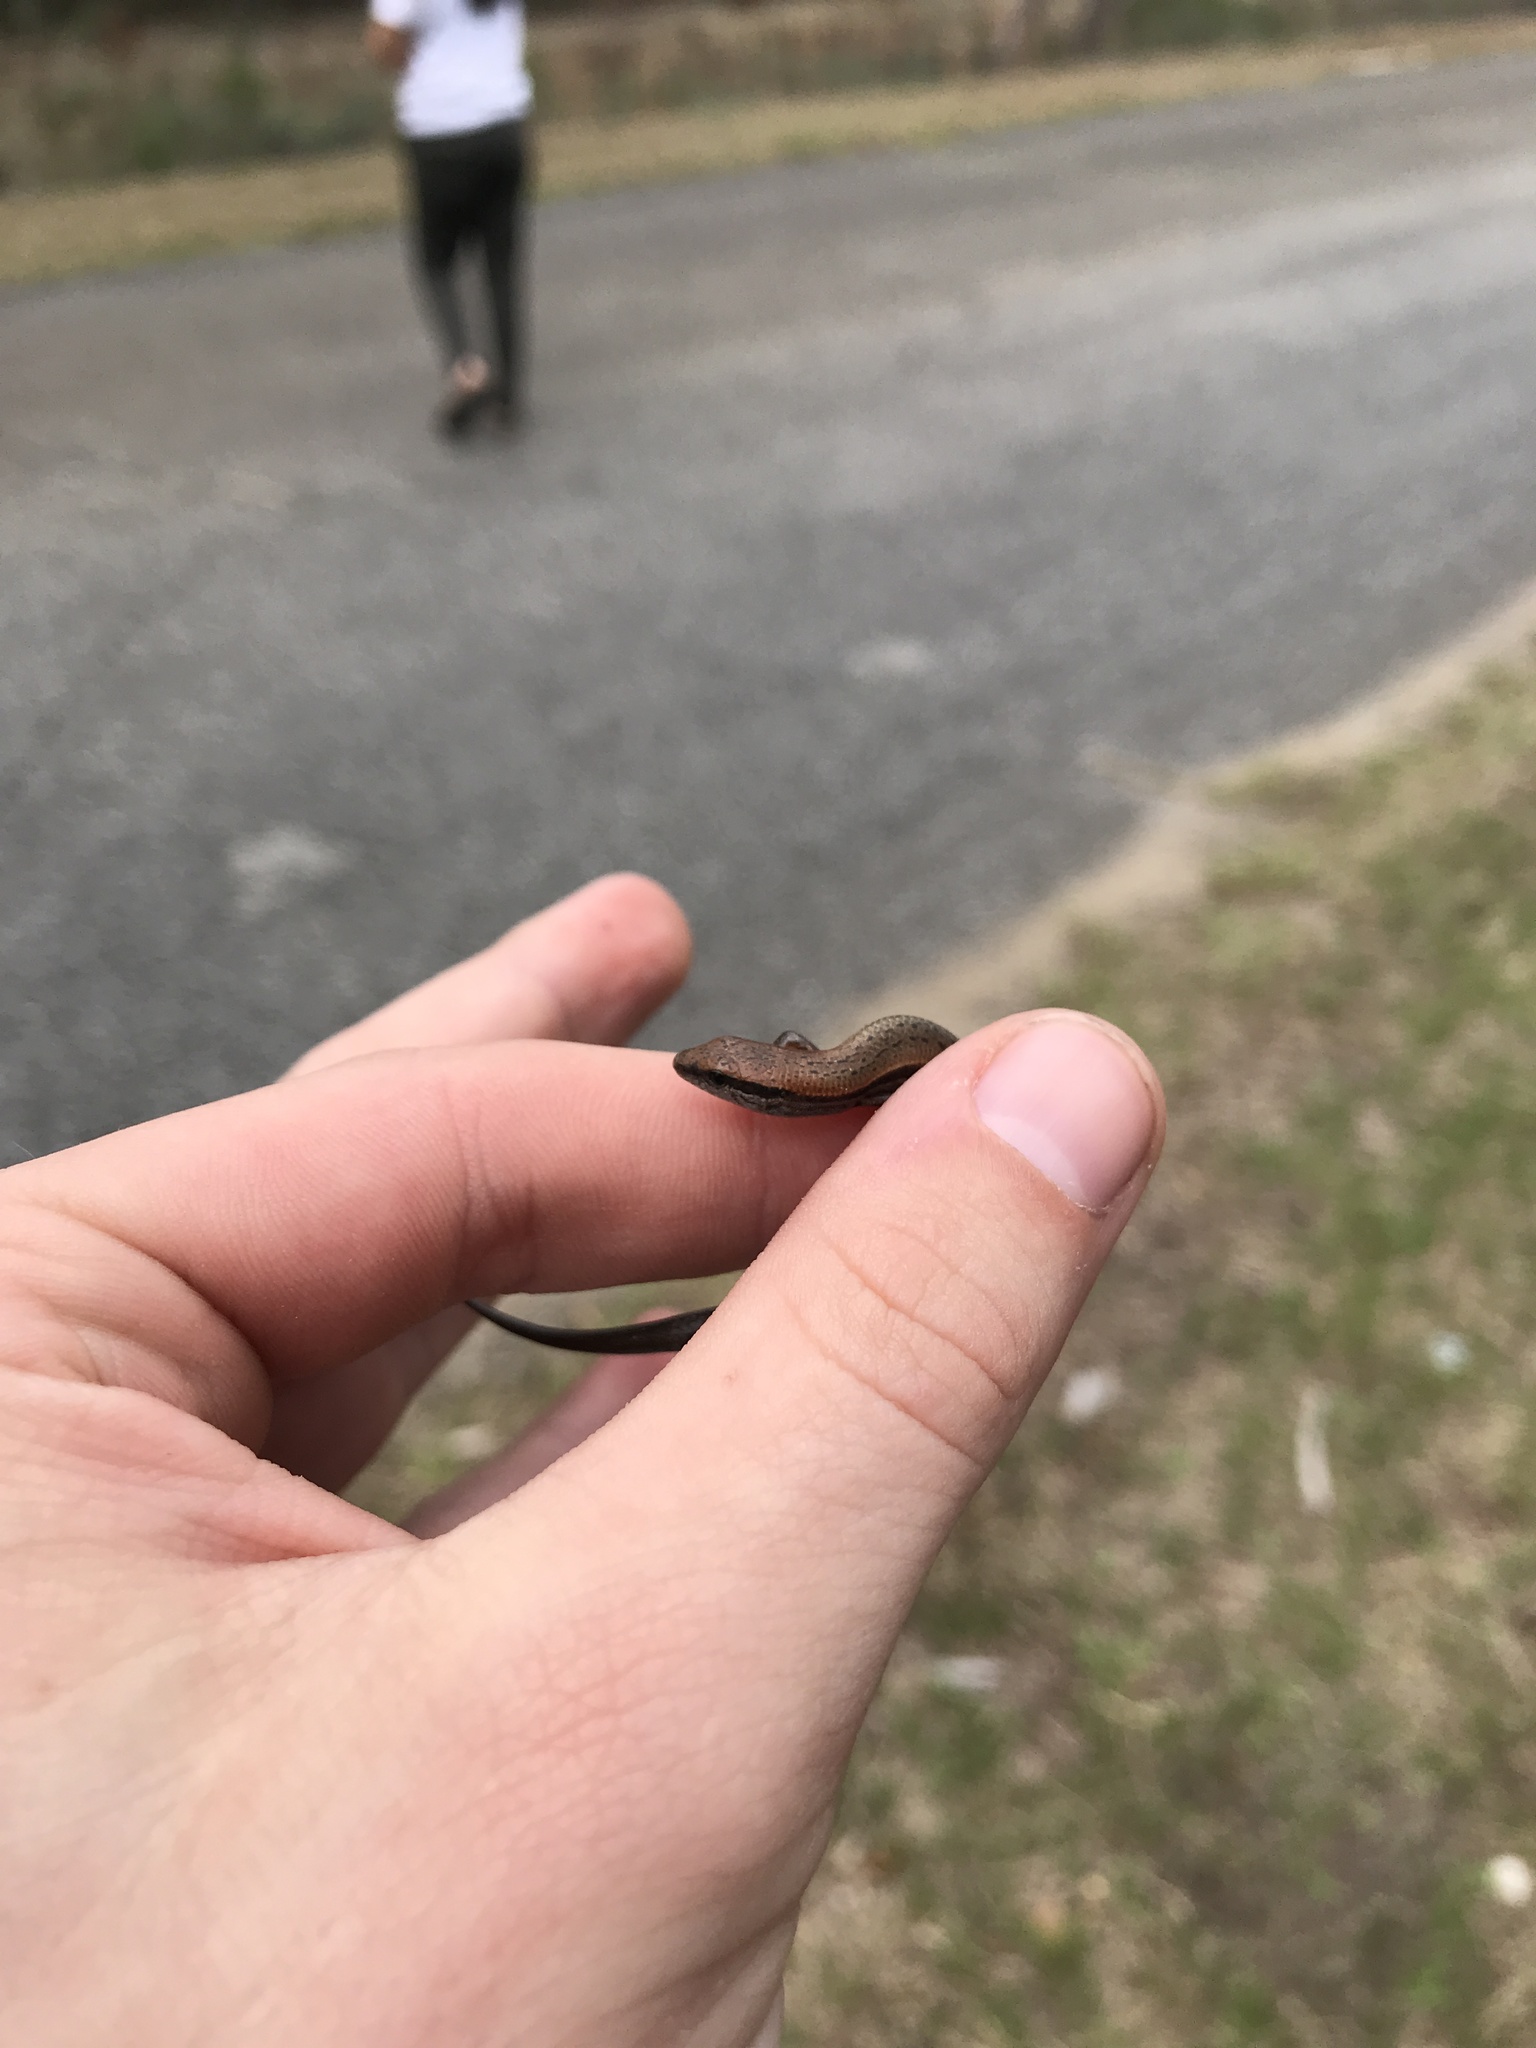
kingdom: Animalia
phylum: Chordata
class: Squamata
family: Scincidae
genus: Scincella
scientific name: Scincella lateralis
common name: Ground skink
